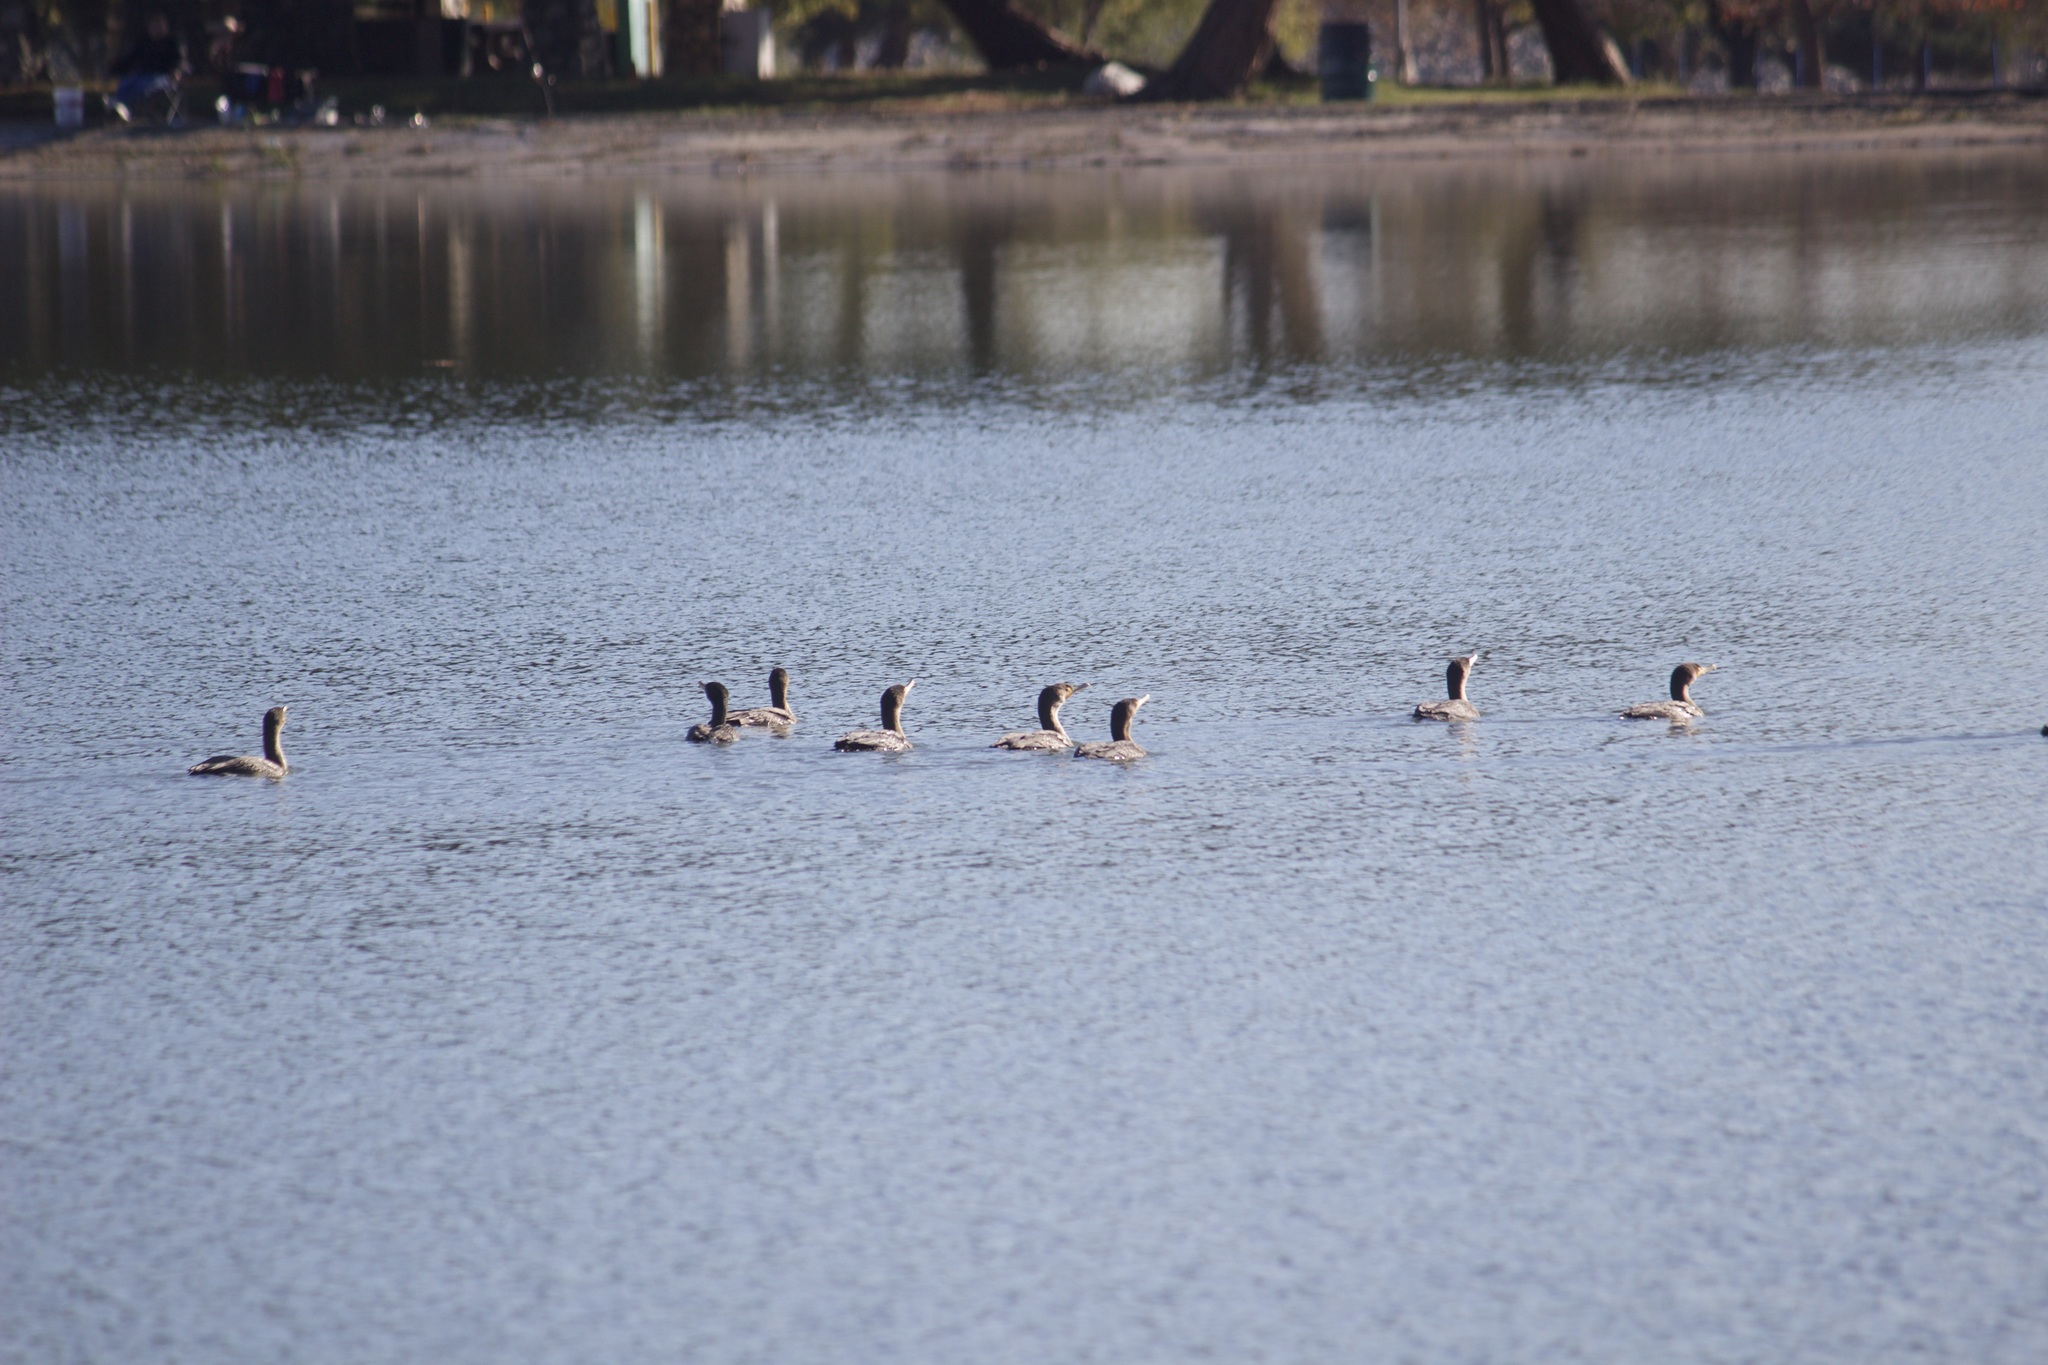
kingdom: Animalia
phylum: Chordata
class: Aves
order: Suliformes
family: Phalacrocoracidae
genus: Phalacrocorax
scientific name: Phalacrocorax auritus
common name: Double-crested cormorant
